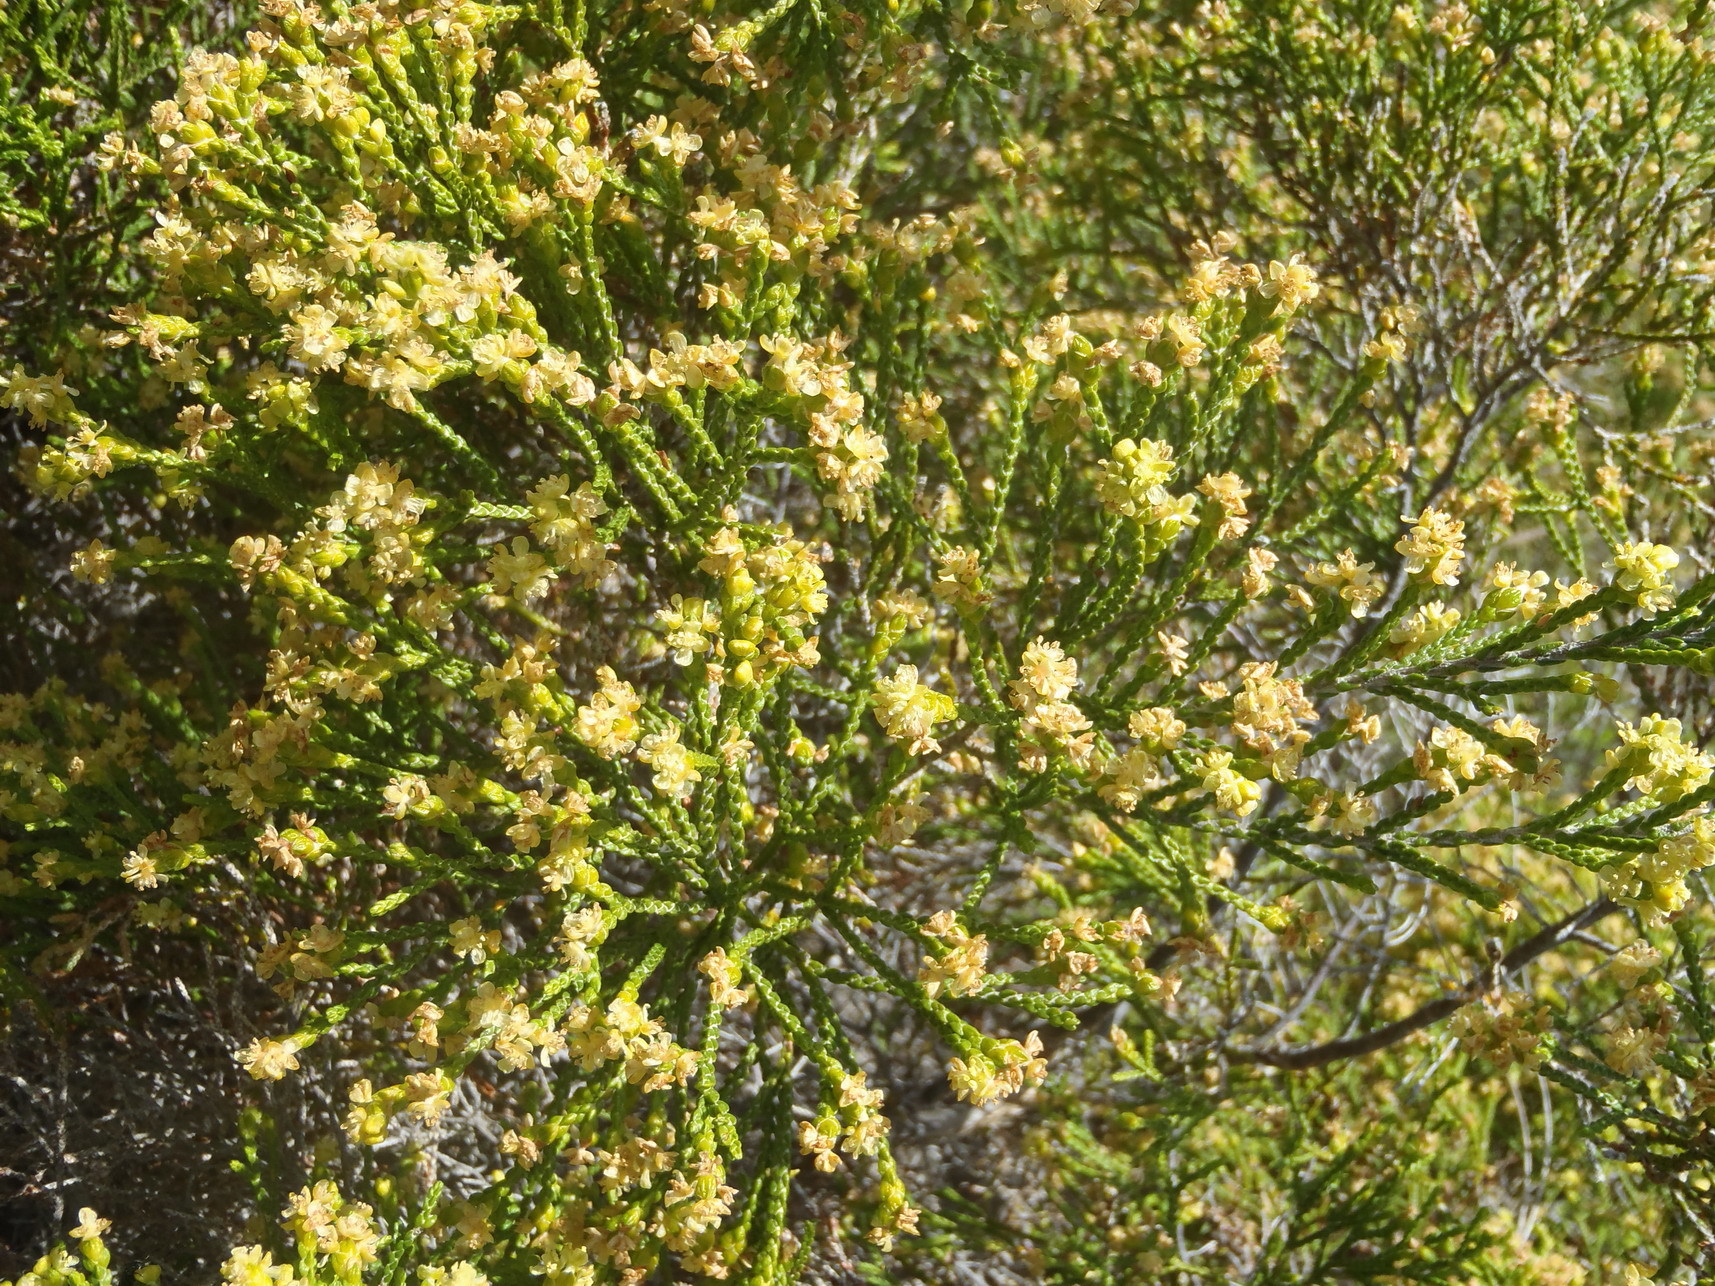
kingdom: Plantae
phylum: Tracheophyta
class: Magnoliopsida
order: Malvales
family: Thymelaeaceae
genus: Passerina
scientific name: Passerina rigida
